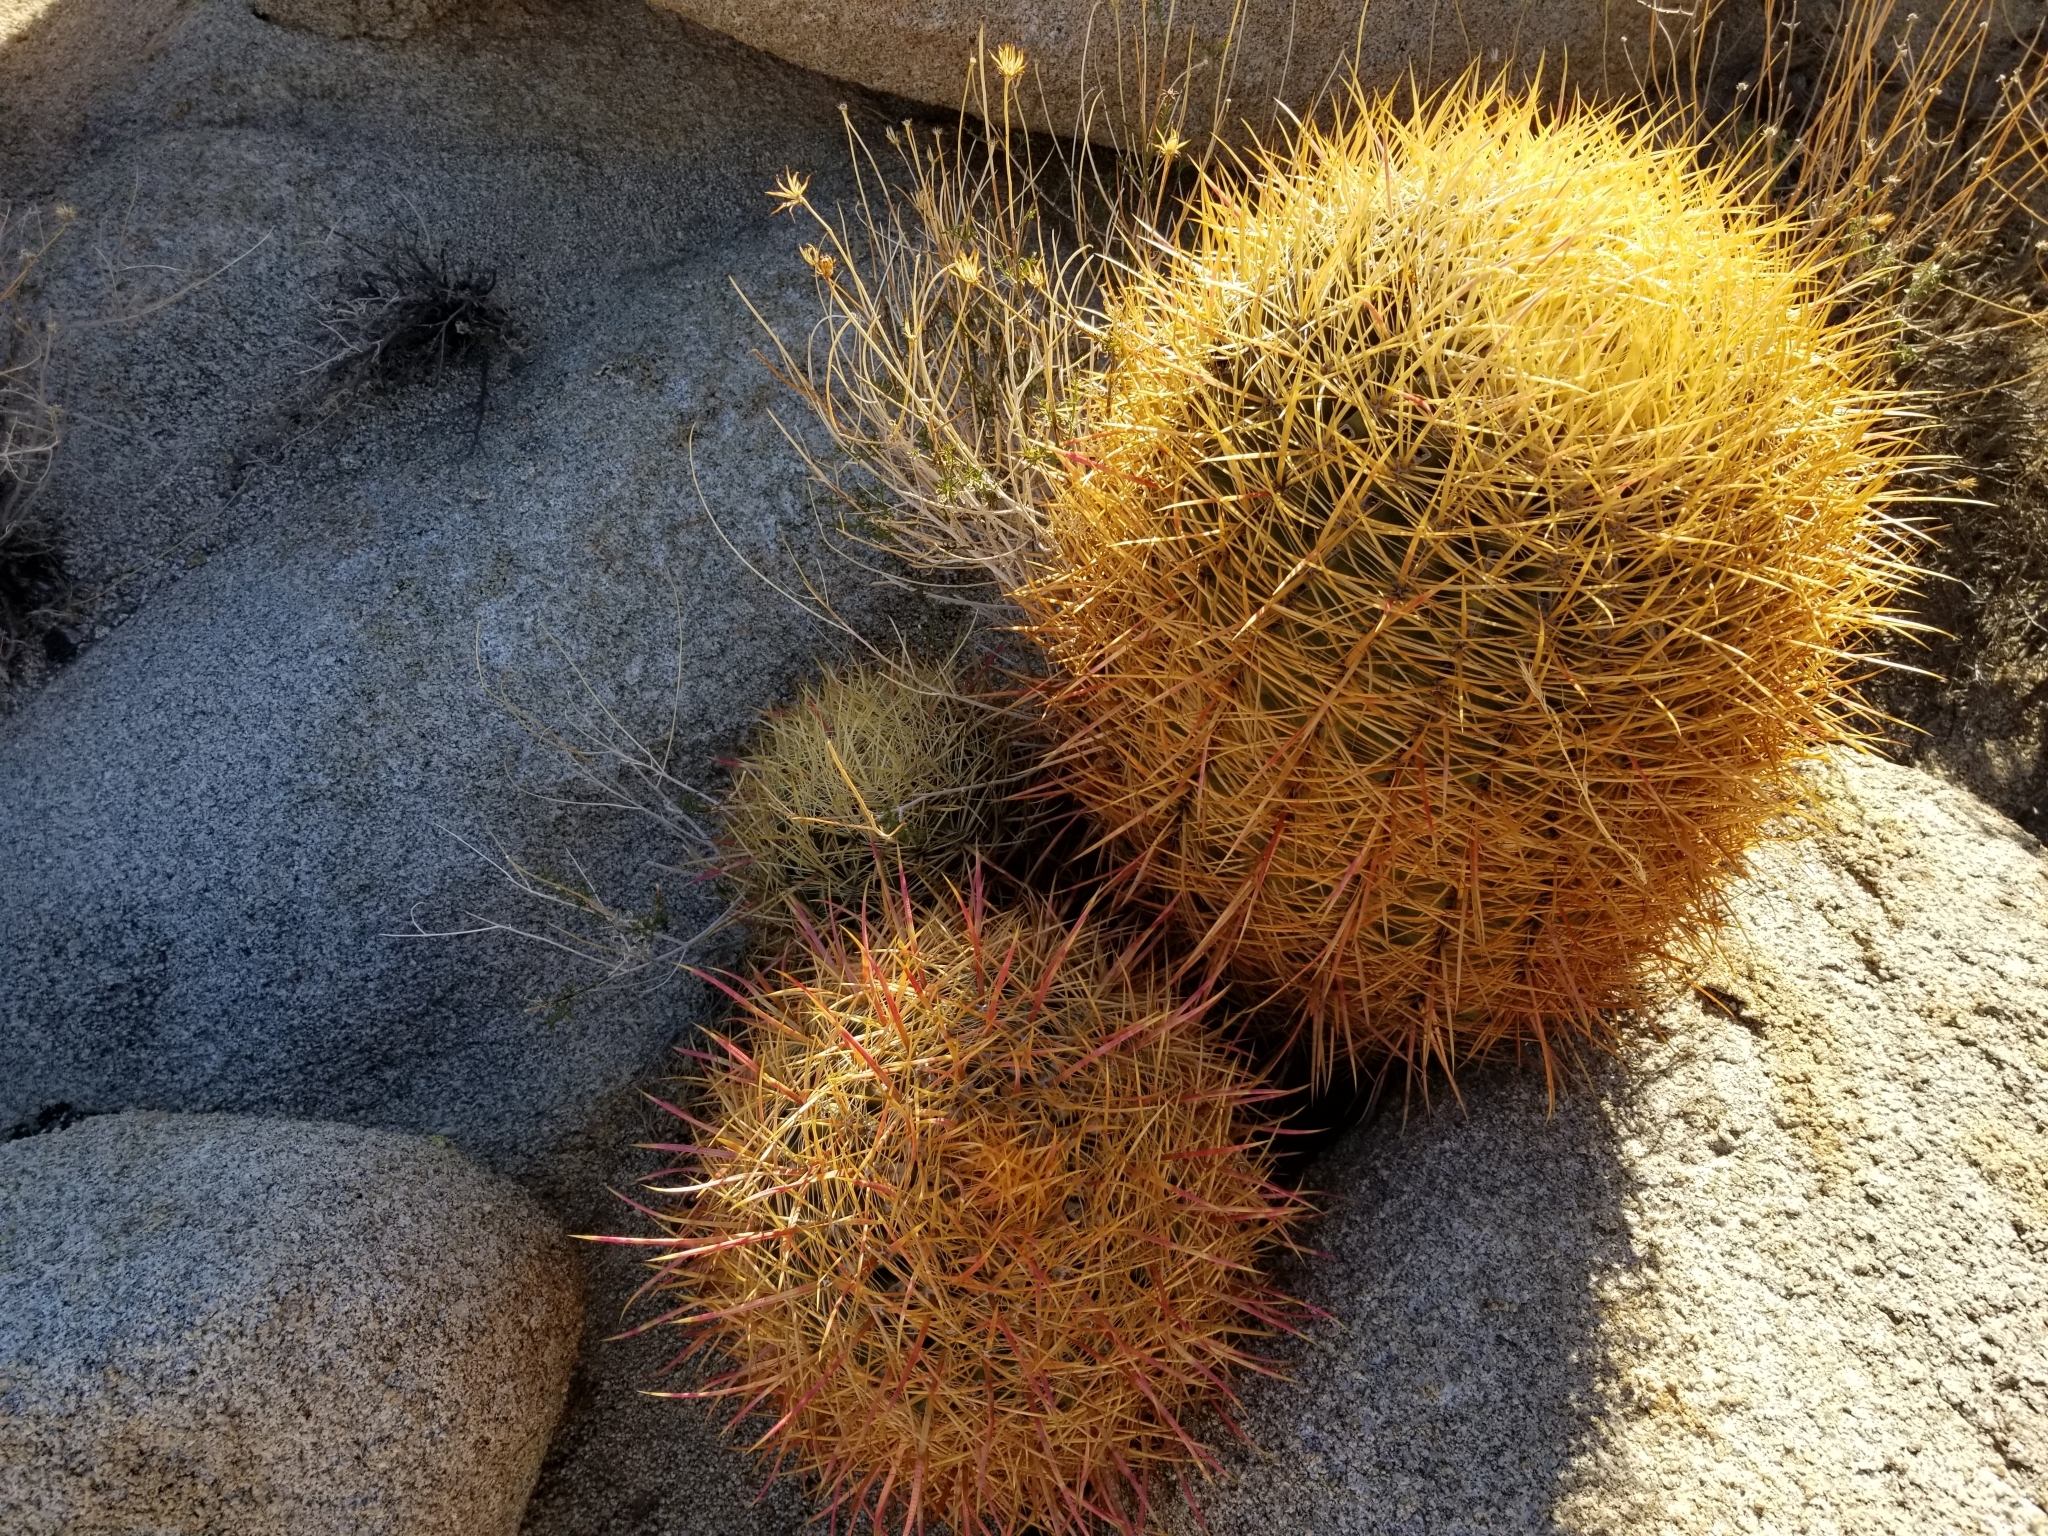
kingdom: Plantae
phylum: Tracheophyta
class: Magnoliopsida
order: Caryophyllales
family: Cactaceae
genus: Ferocactus
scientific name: Ferocactus cylindraceus
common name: California barrel cactus
